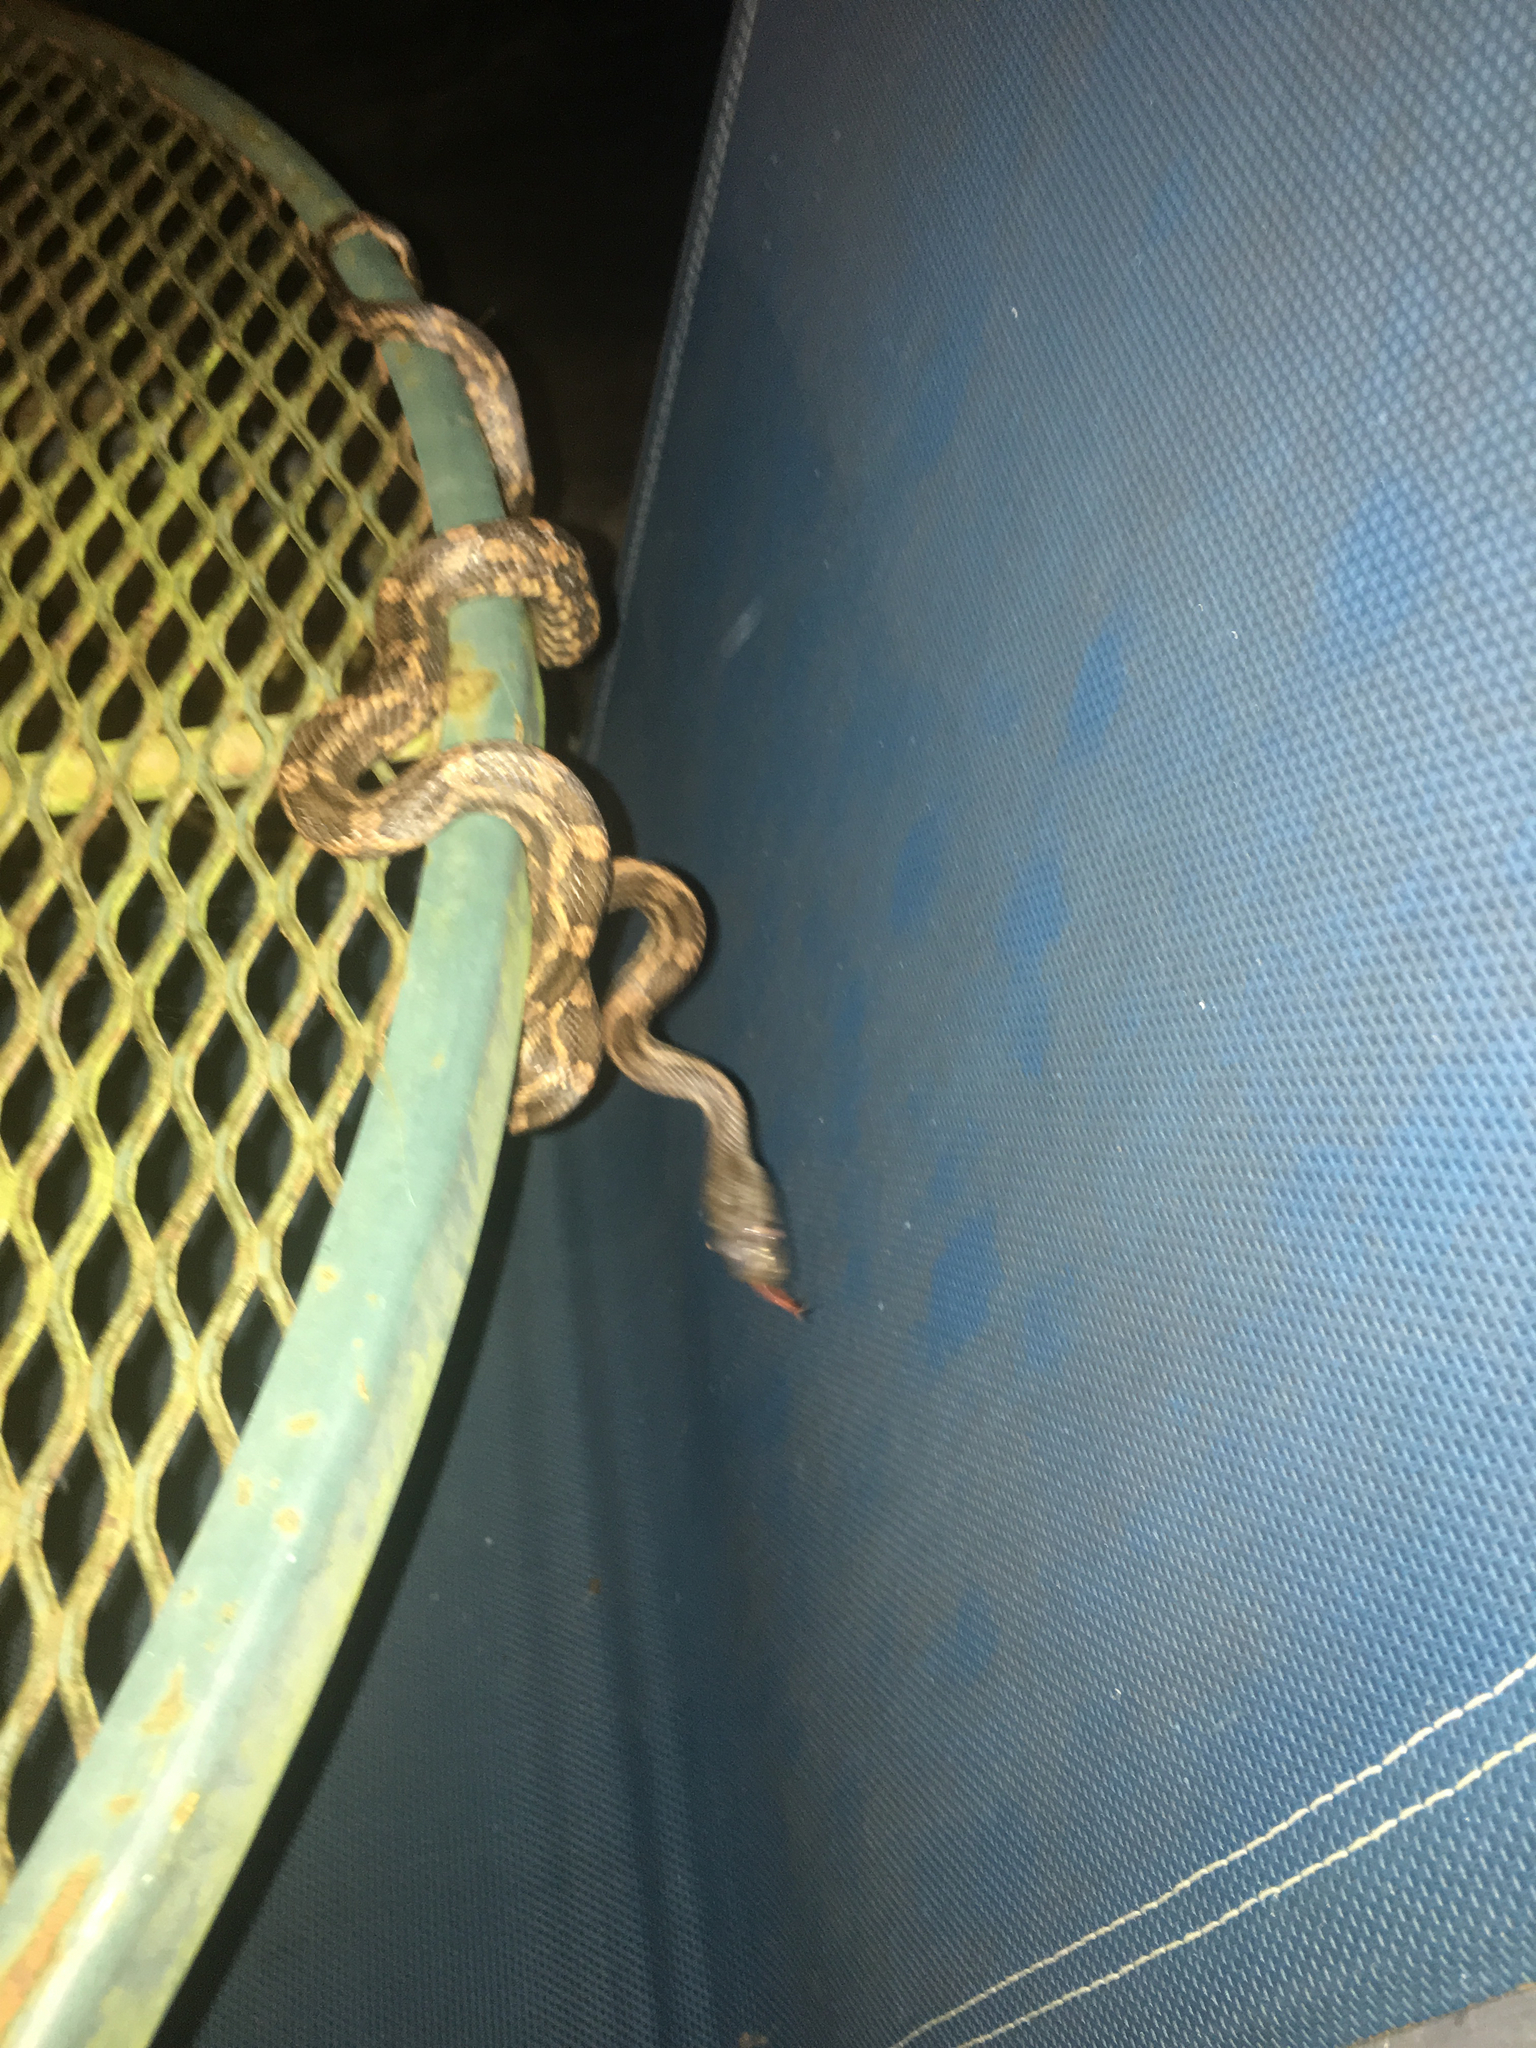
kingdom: Animalia
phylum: Chordata
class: Squamata
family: Colubridae
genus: Pantherophis
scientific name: Pantherophis obsoletus
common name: Black rat snake
